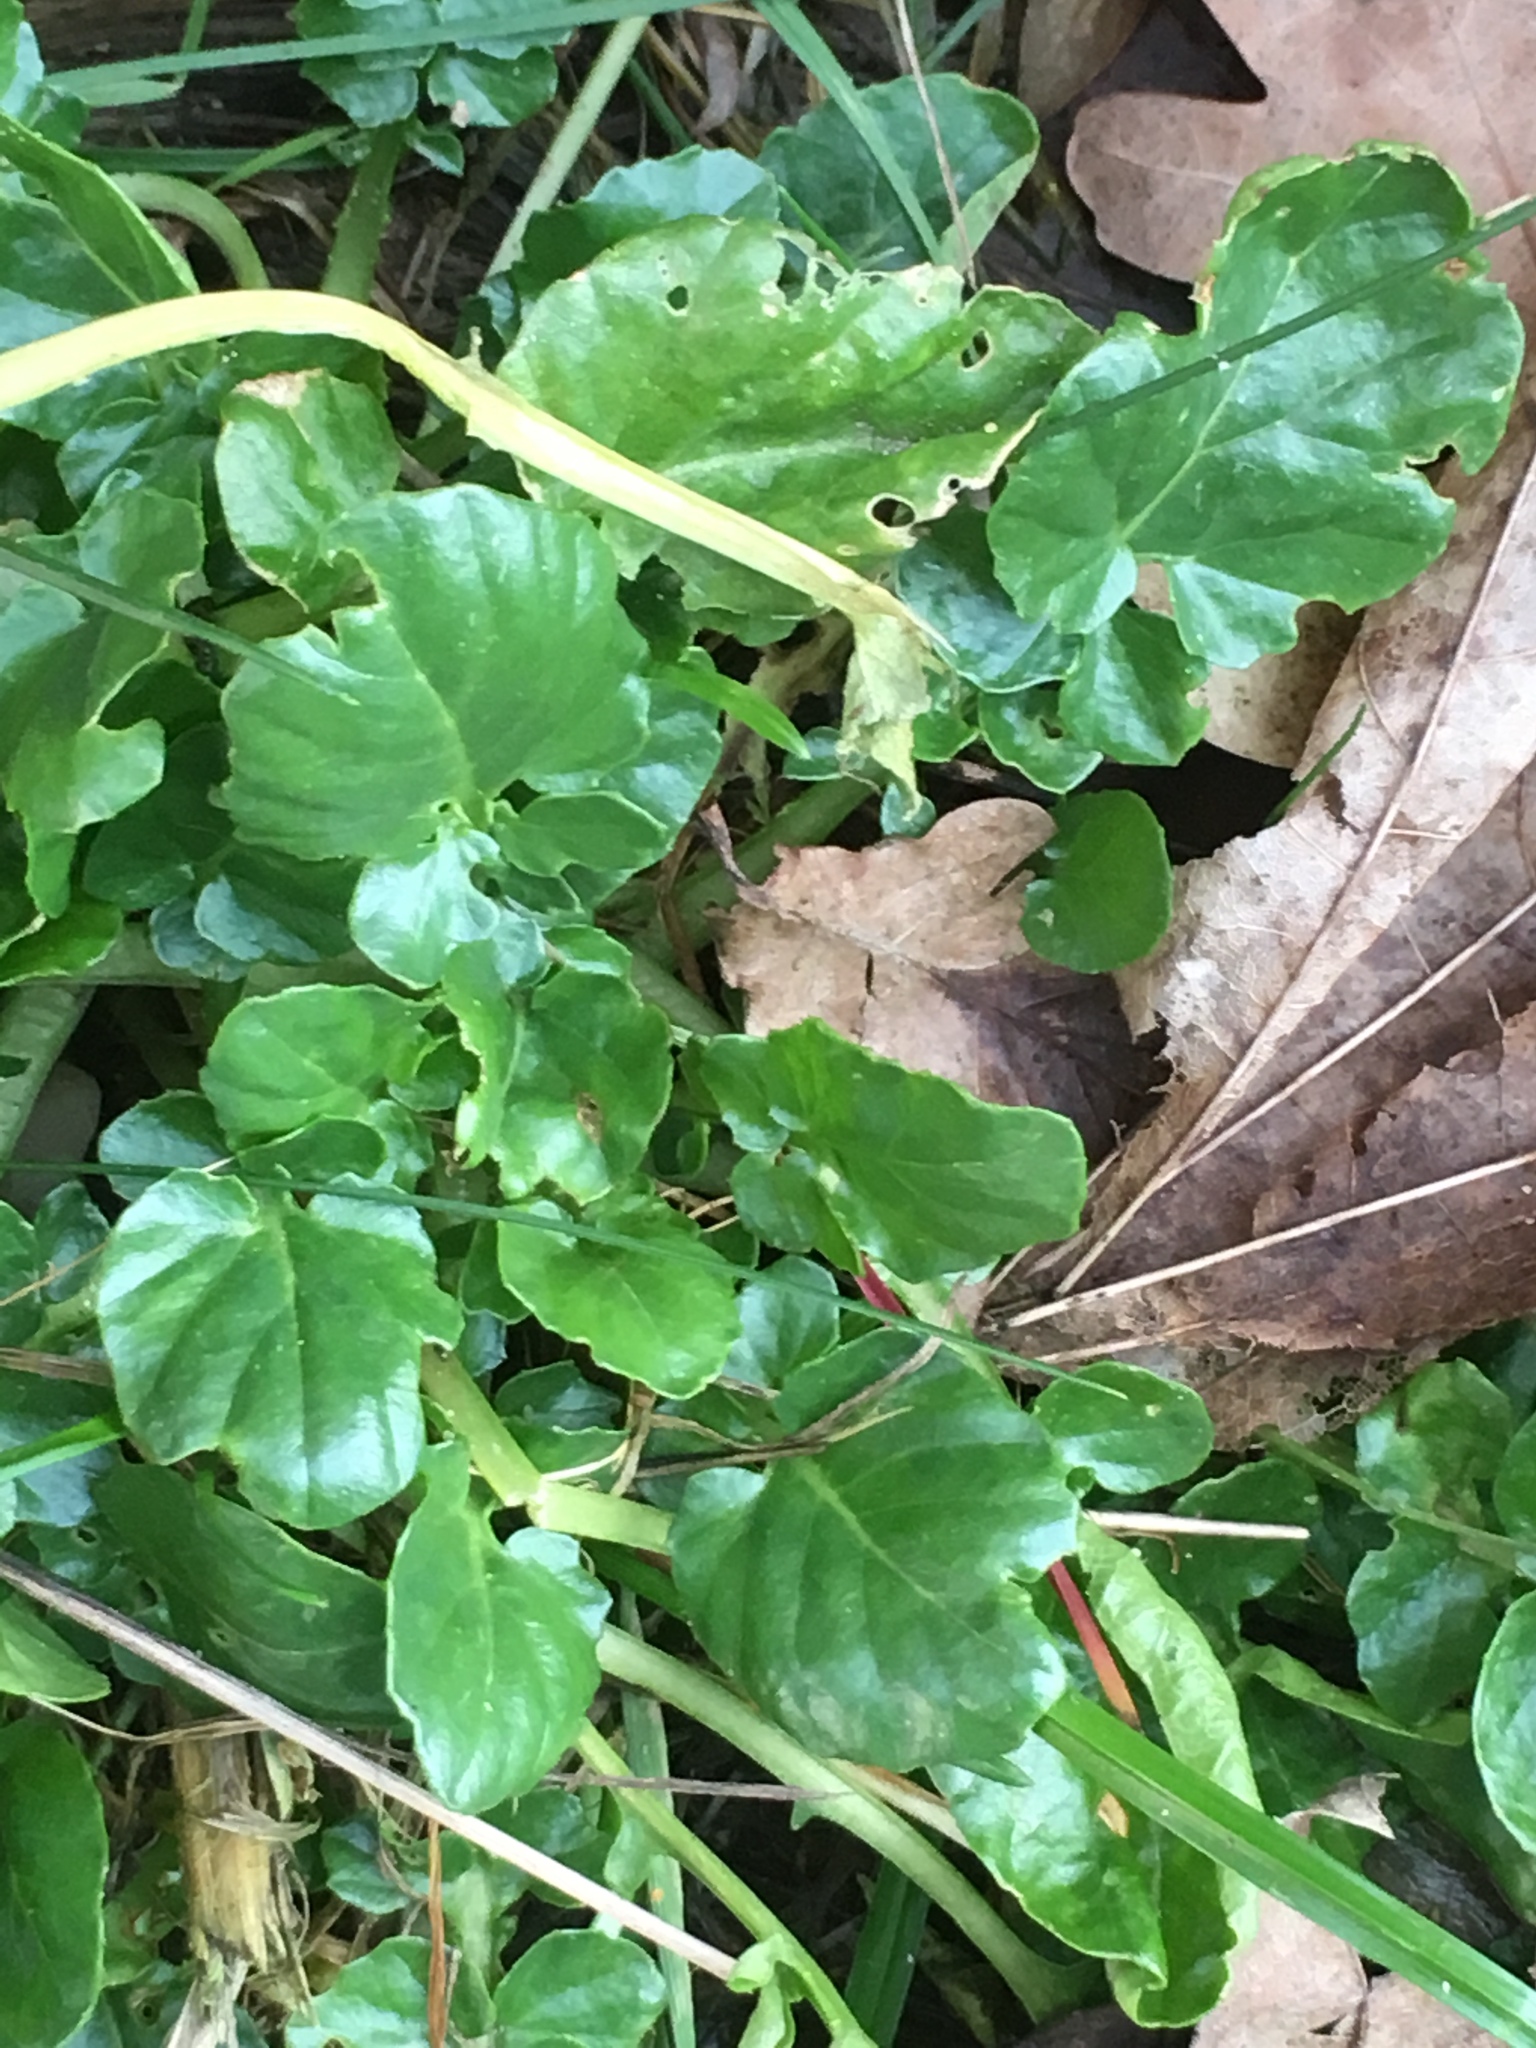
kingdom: Plantae
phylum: Tracheophyta
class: Magnoliopsida
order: Brassicales
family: Brassicaceae
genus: Barbarea
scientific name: Barbarea vulgaris
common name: Cressy-greens
